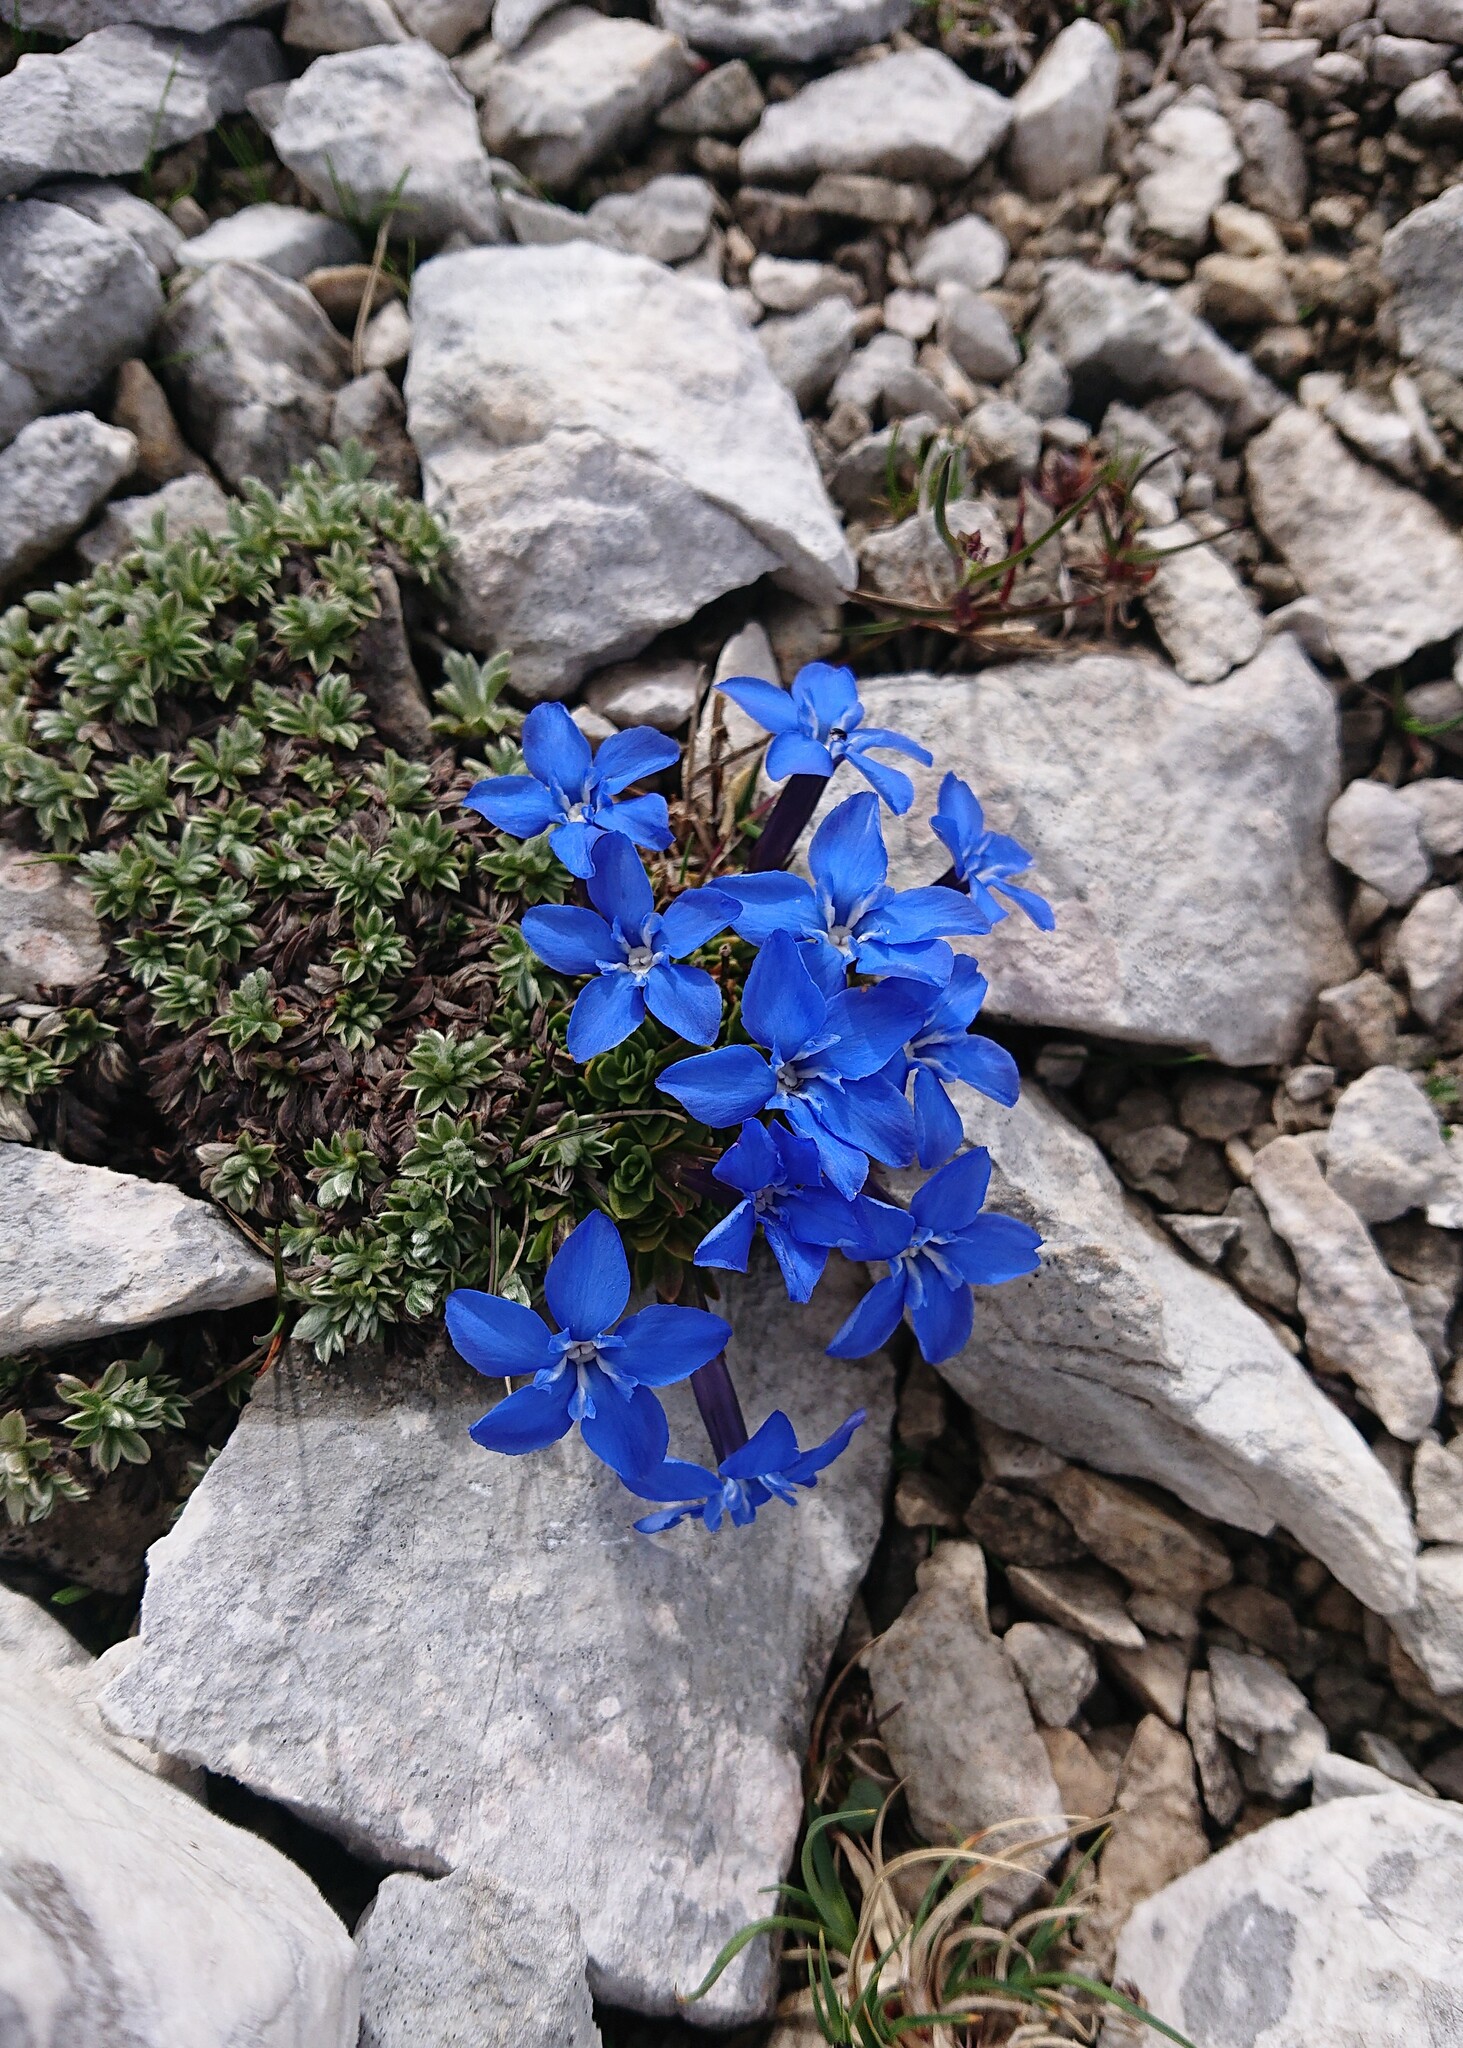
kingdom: Plantae
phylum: Tracheophyta
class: Magnoliopsida
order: Gentianales
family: Gentianaceae
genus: Gentiana
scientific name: Gentiana terglouensis
